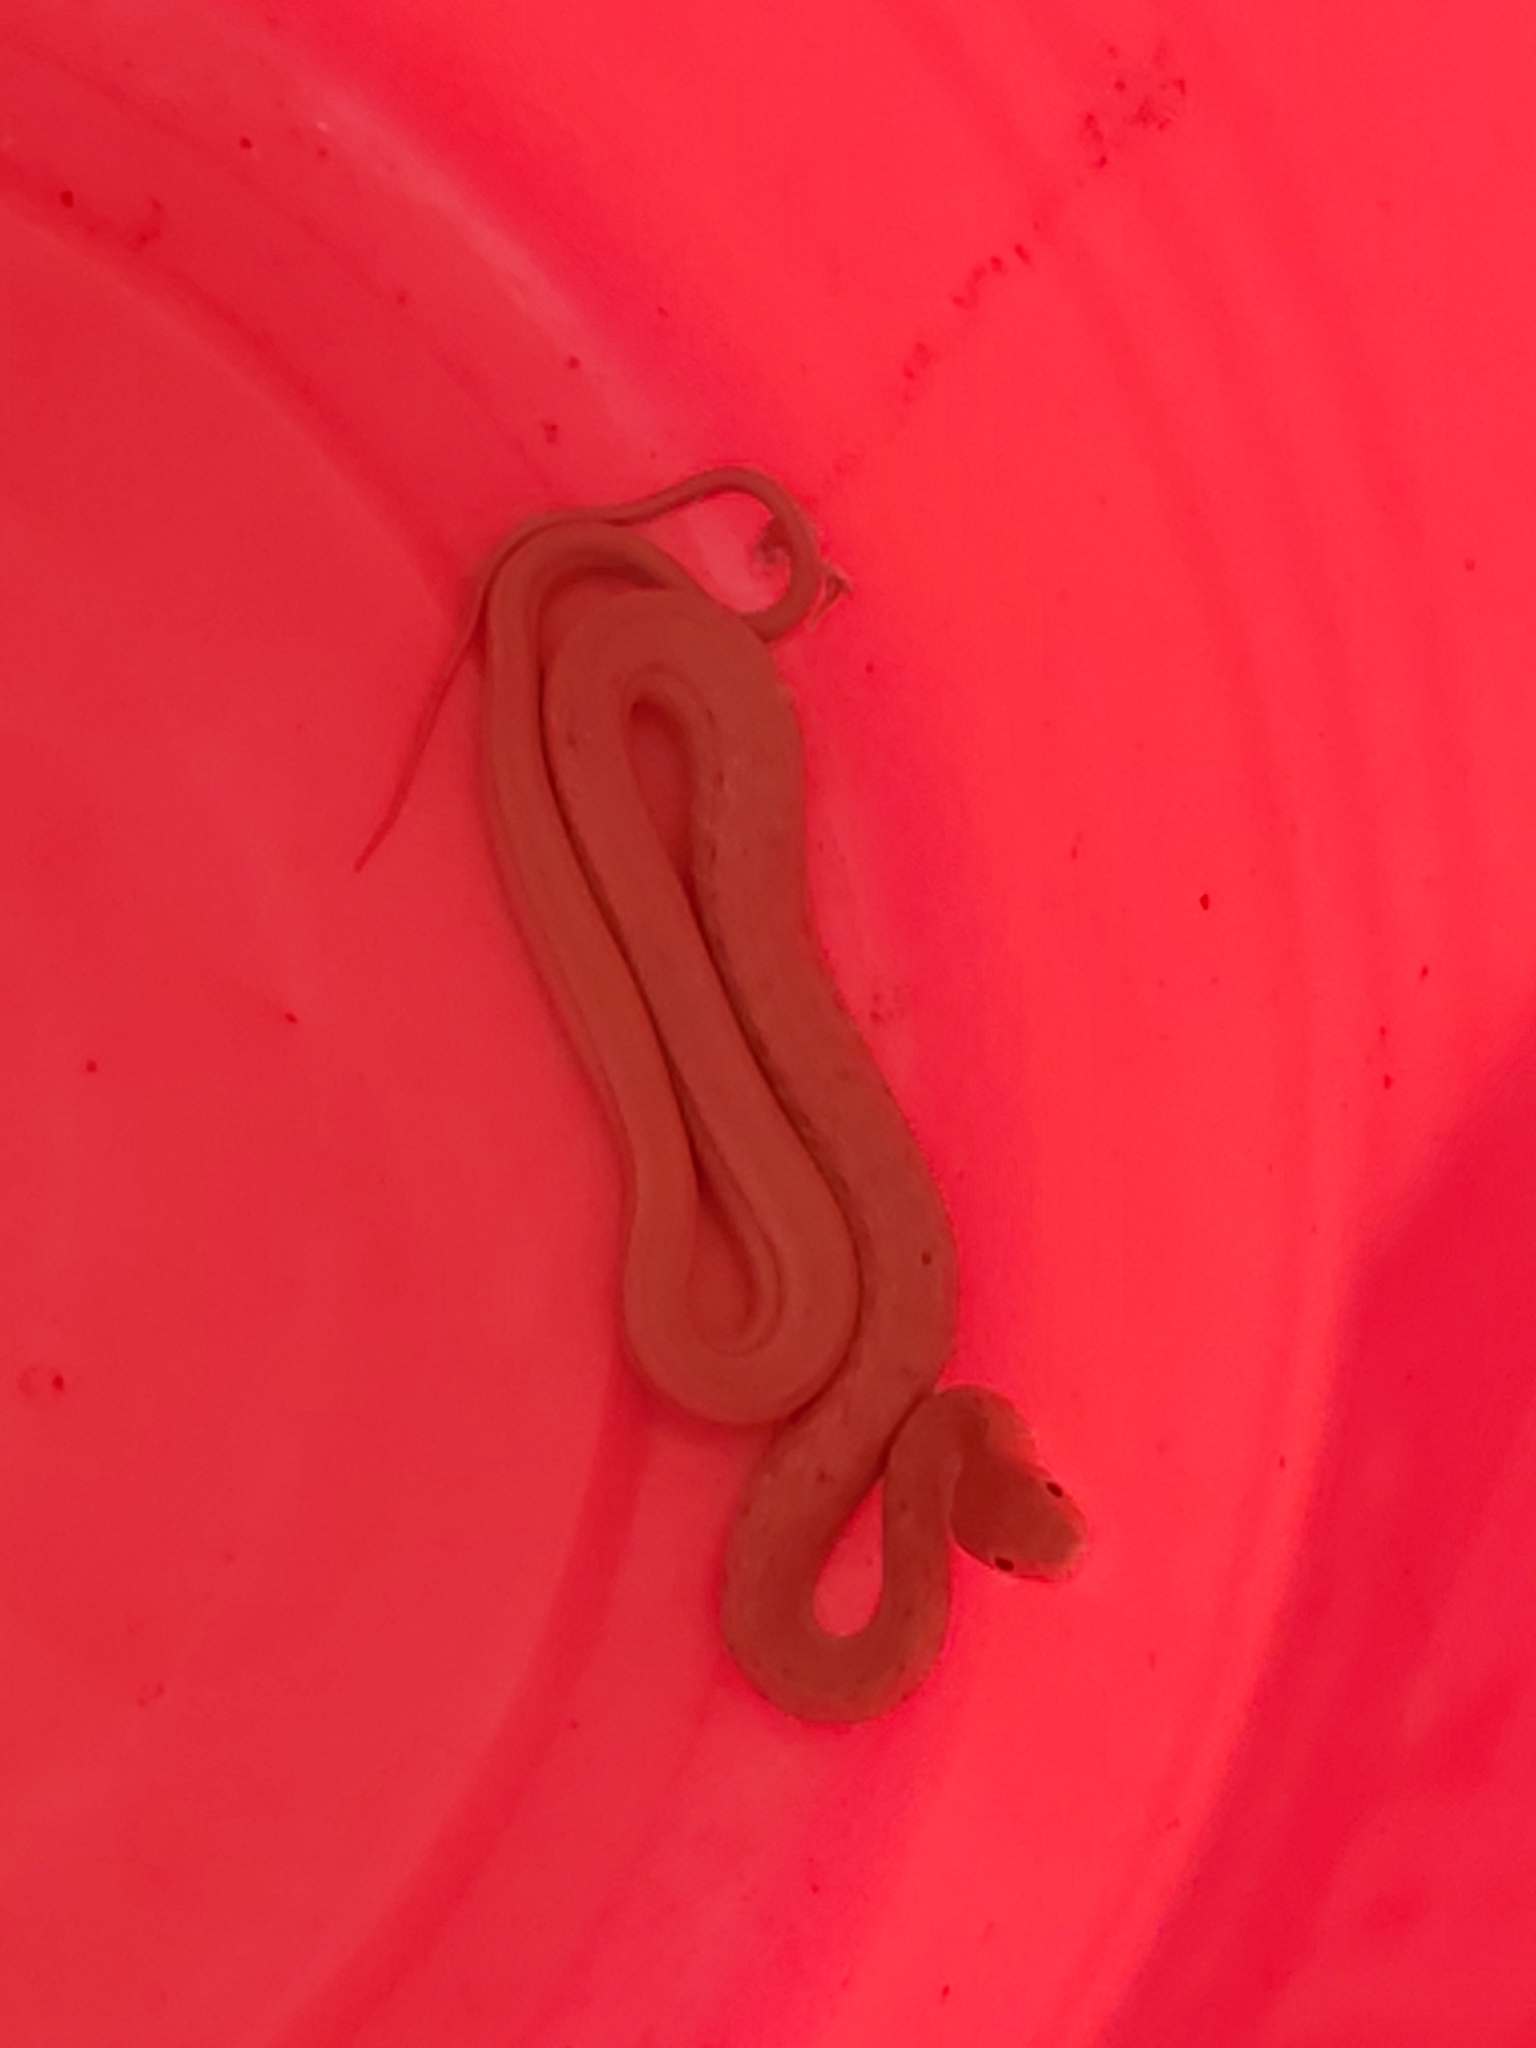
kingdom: Animalia
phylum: Chordata
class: Squamata
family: Colubridae
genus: Elaphe
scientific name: Elaphe carinata
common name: Taiwan stink snake
